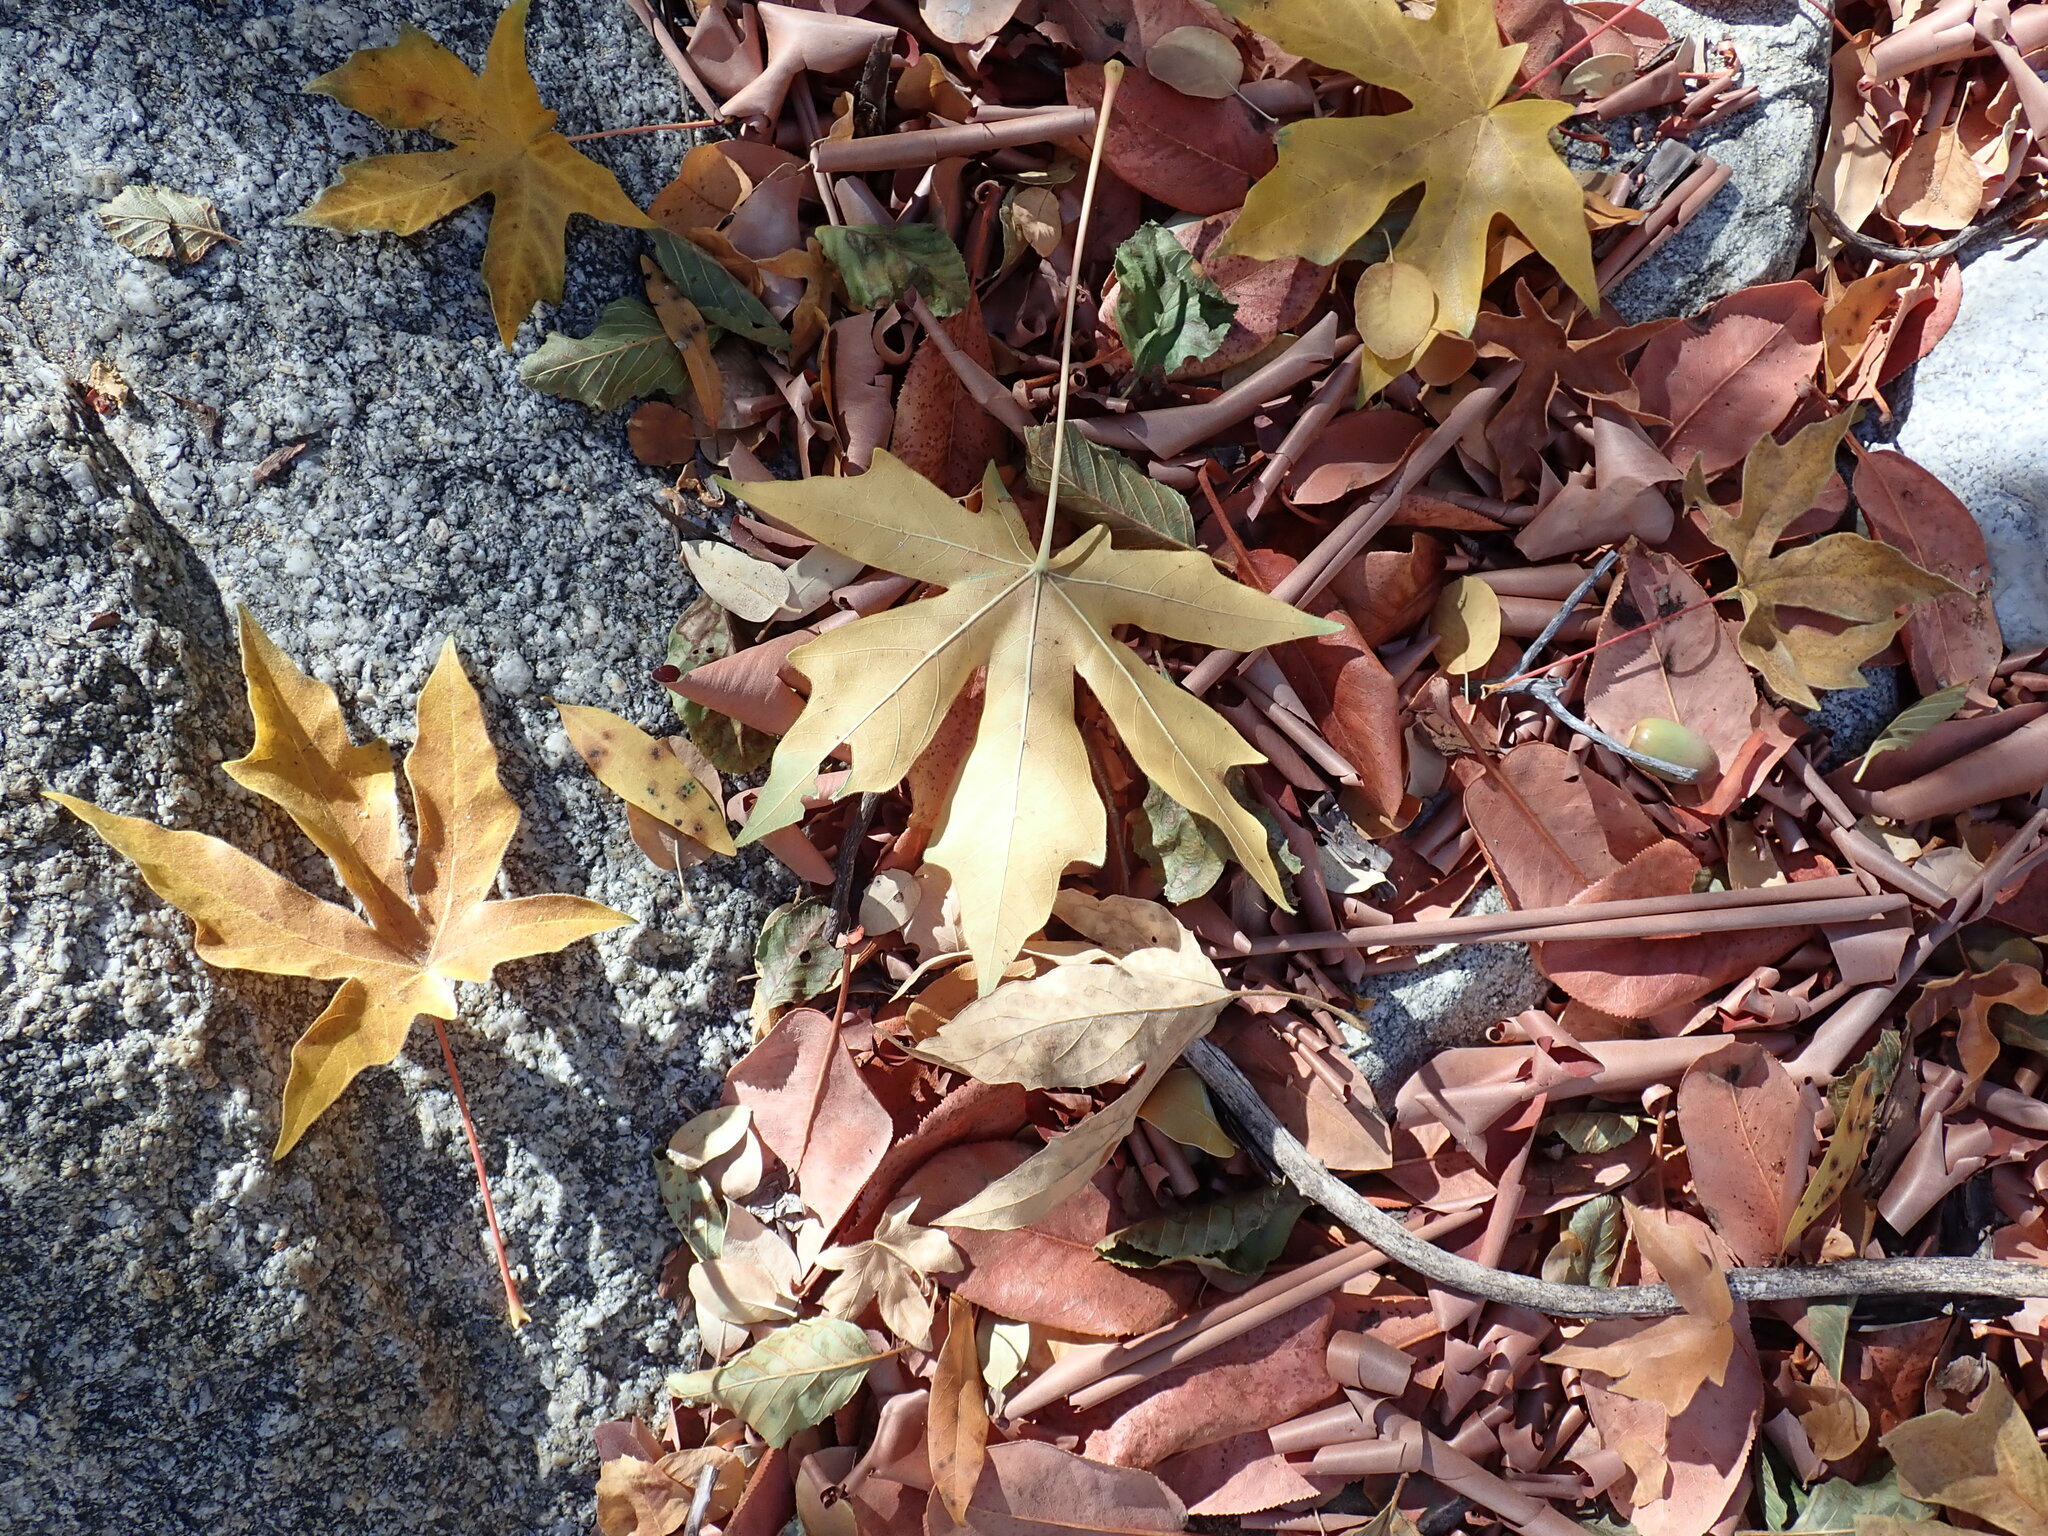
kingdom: Plantae
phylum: Tracheophyta
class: Magnoliopsida
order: Sapindales
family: Sapindaceae
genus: Acer
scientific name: Acer macrophyllum
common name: Oregon maple
